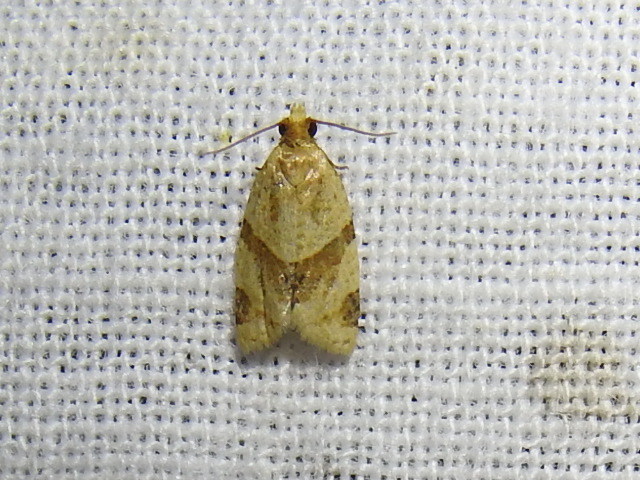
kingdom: Animalia
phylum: Arthropoda
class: Insecta
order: Lepidoptera
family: Tortricidae
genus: Clepsis
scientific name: Clepsis peritana
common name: Garden tortrix
